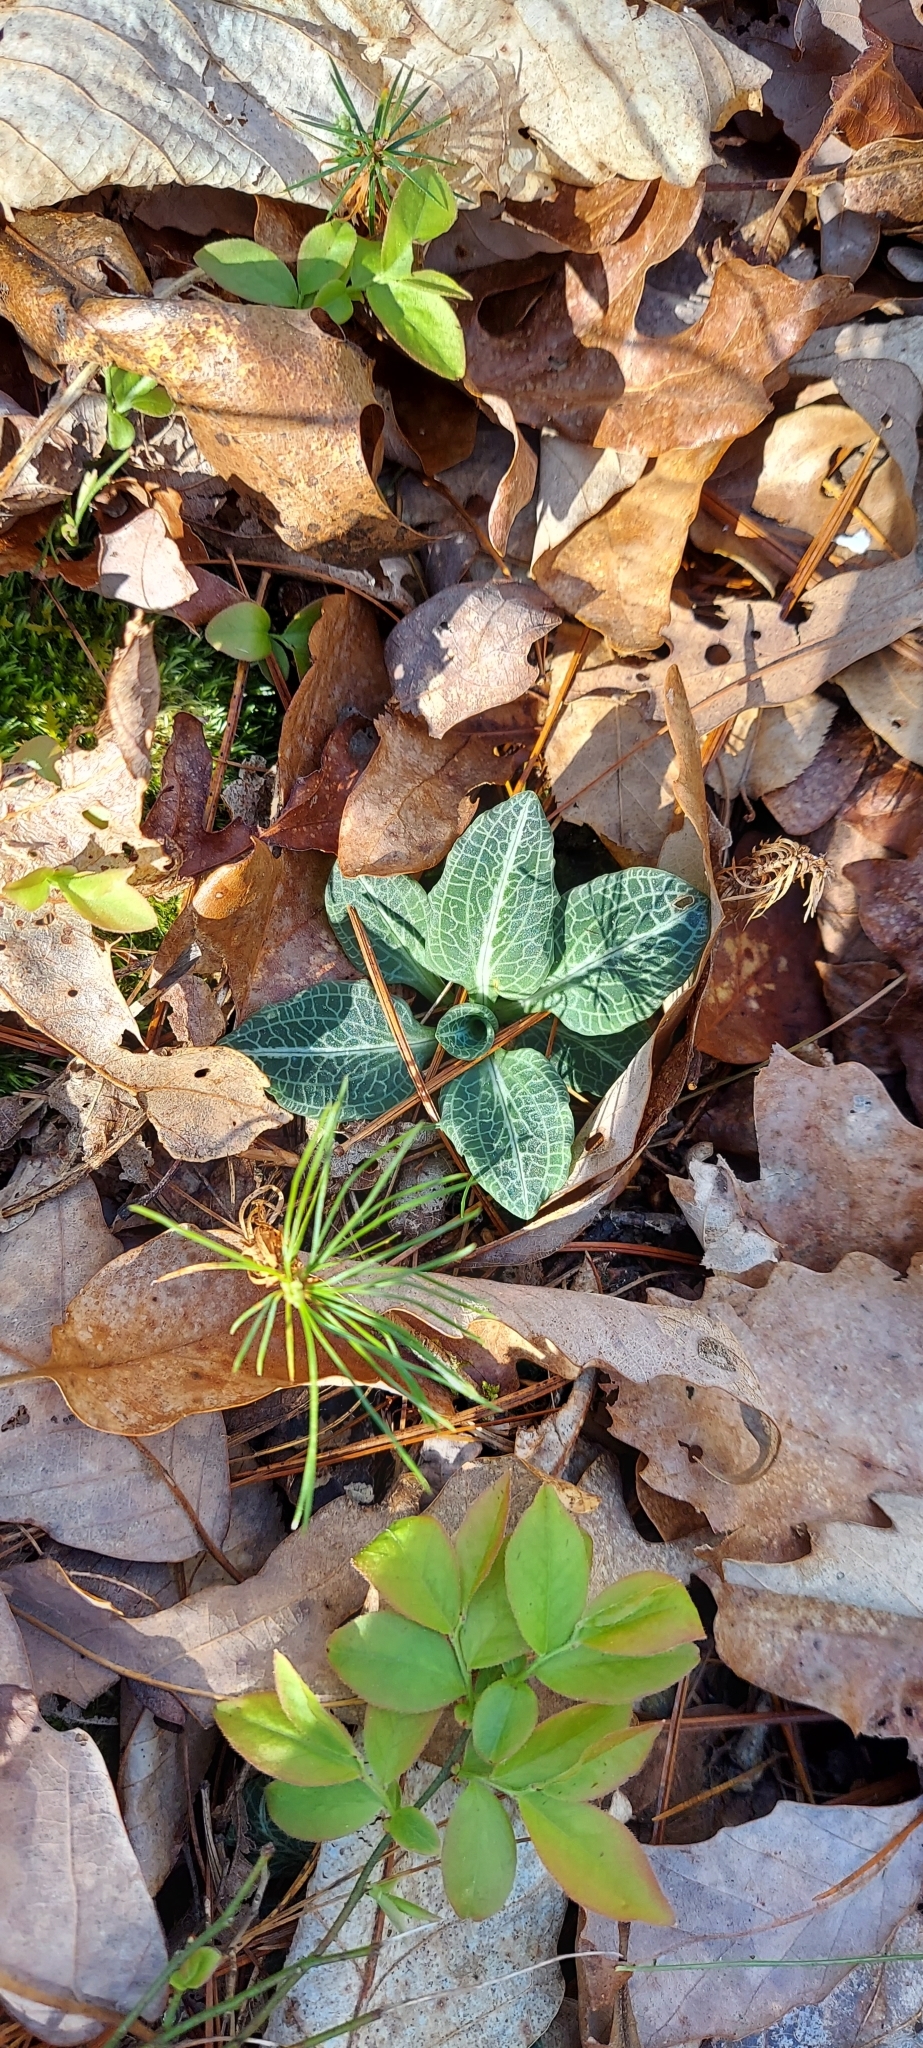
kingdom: Plantae
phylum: Tracheophyta
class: Liliopsida
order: Asparagales
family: Orchidaceae
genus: Goodyera
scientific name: Goodyera pubescens
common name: Downy rattlesnake-plantain
